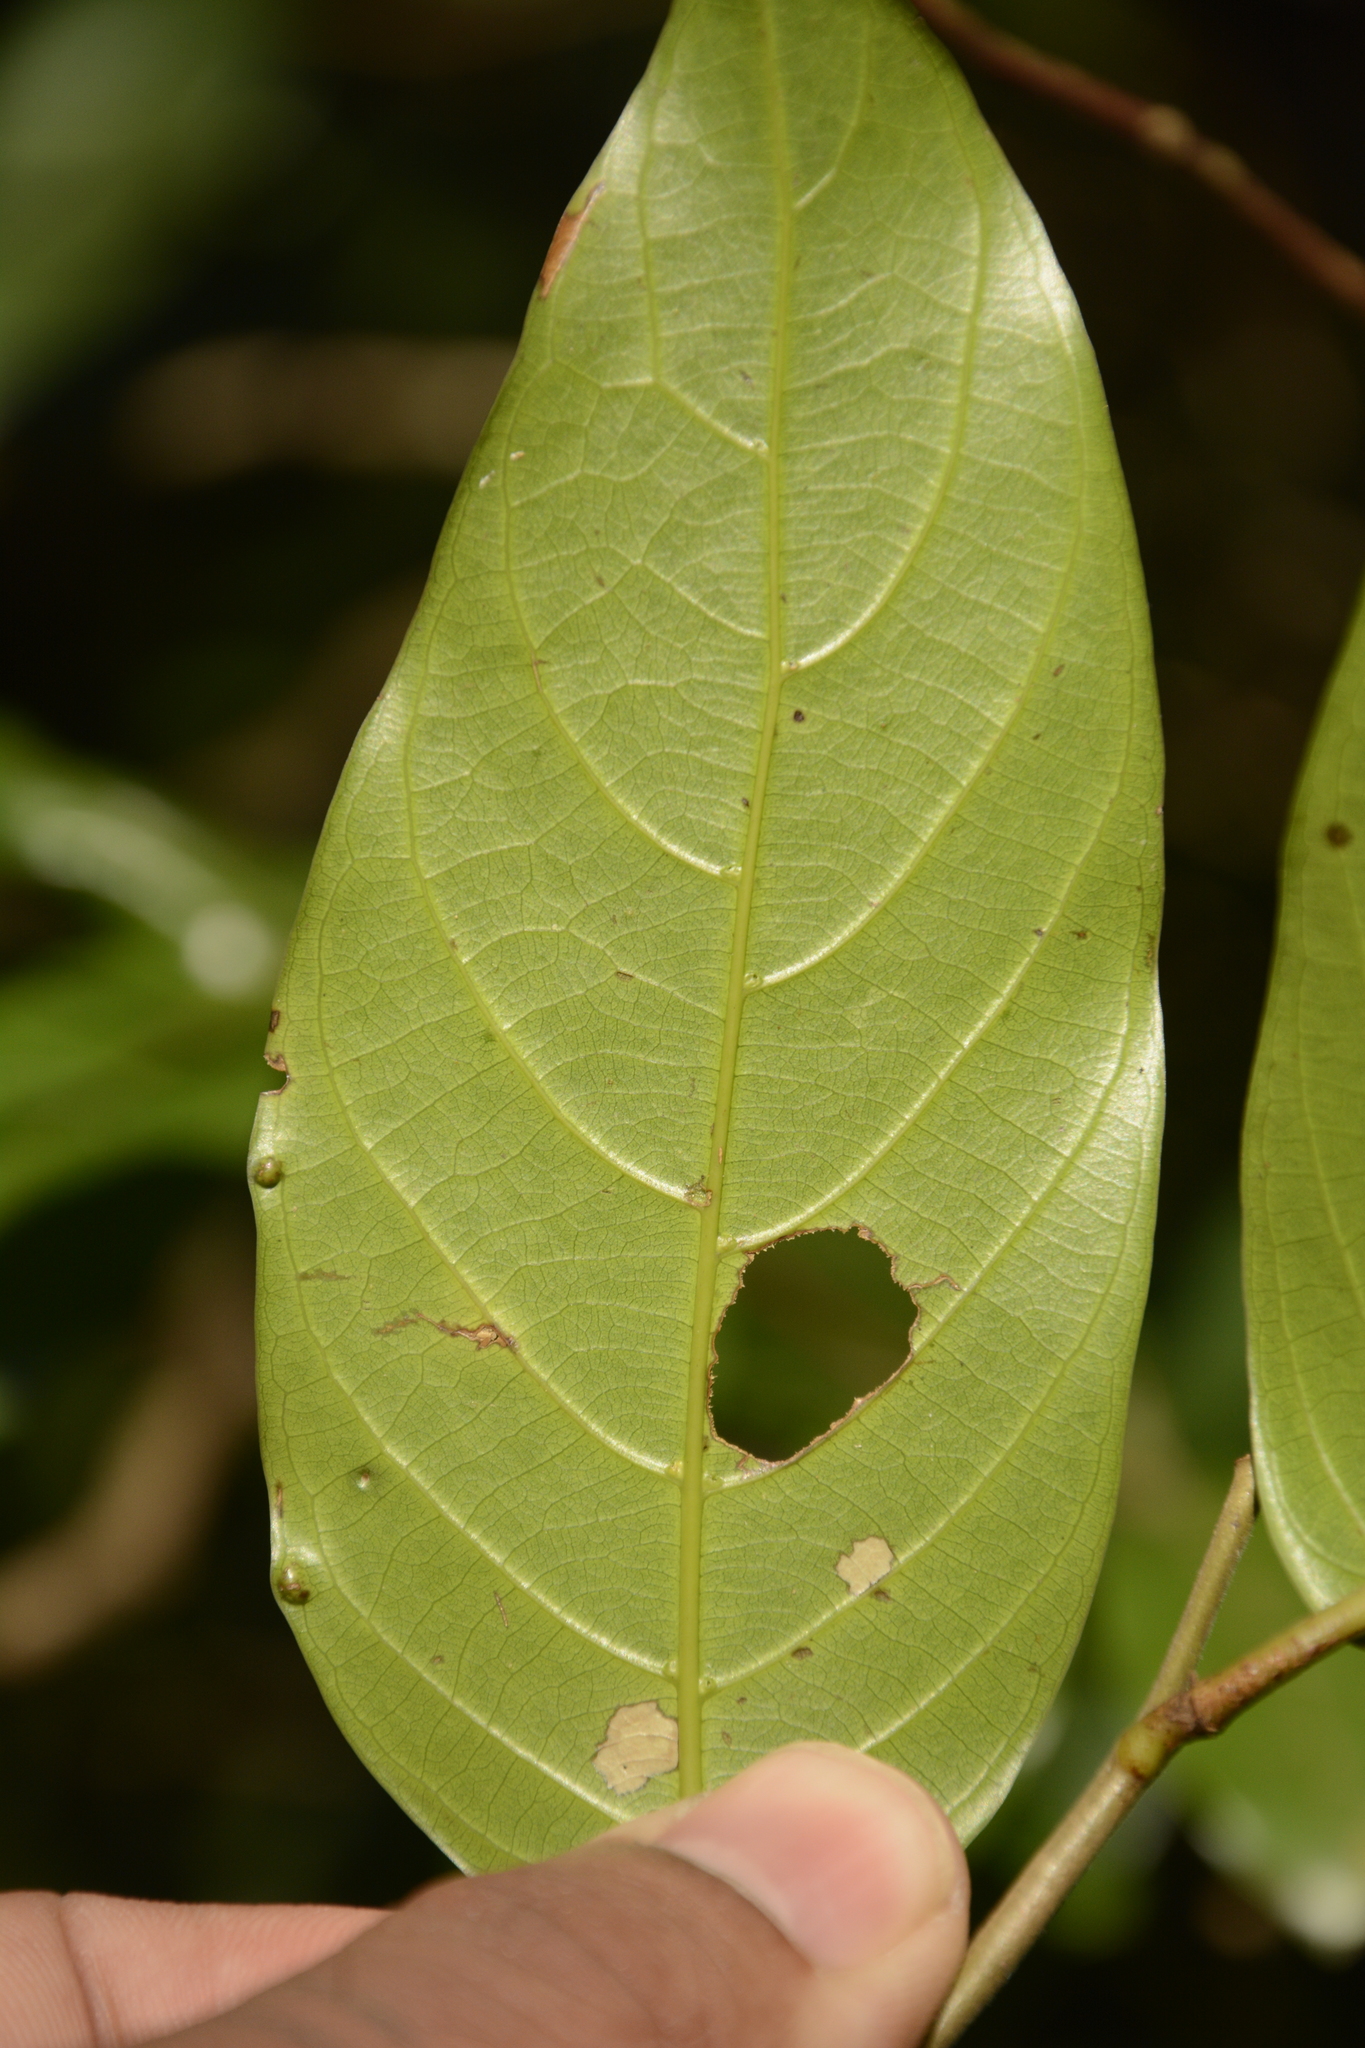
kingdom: Plantae
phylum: Tracheophyta
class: Magnoliopsida
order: Malvales
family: Dipterocarpaceae
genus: Hopea
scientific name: Hopea canarensis
